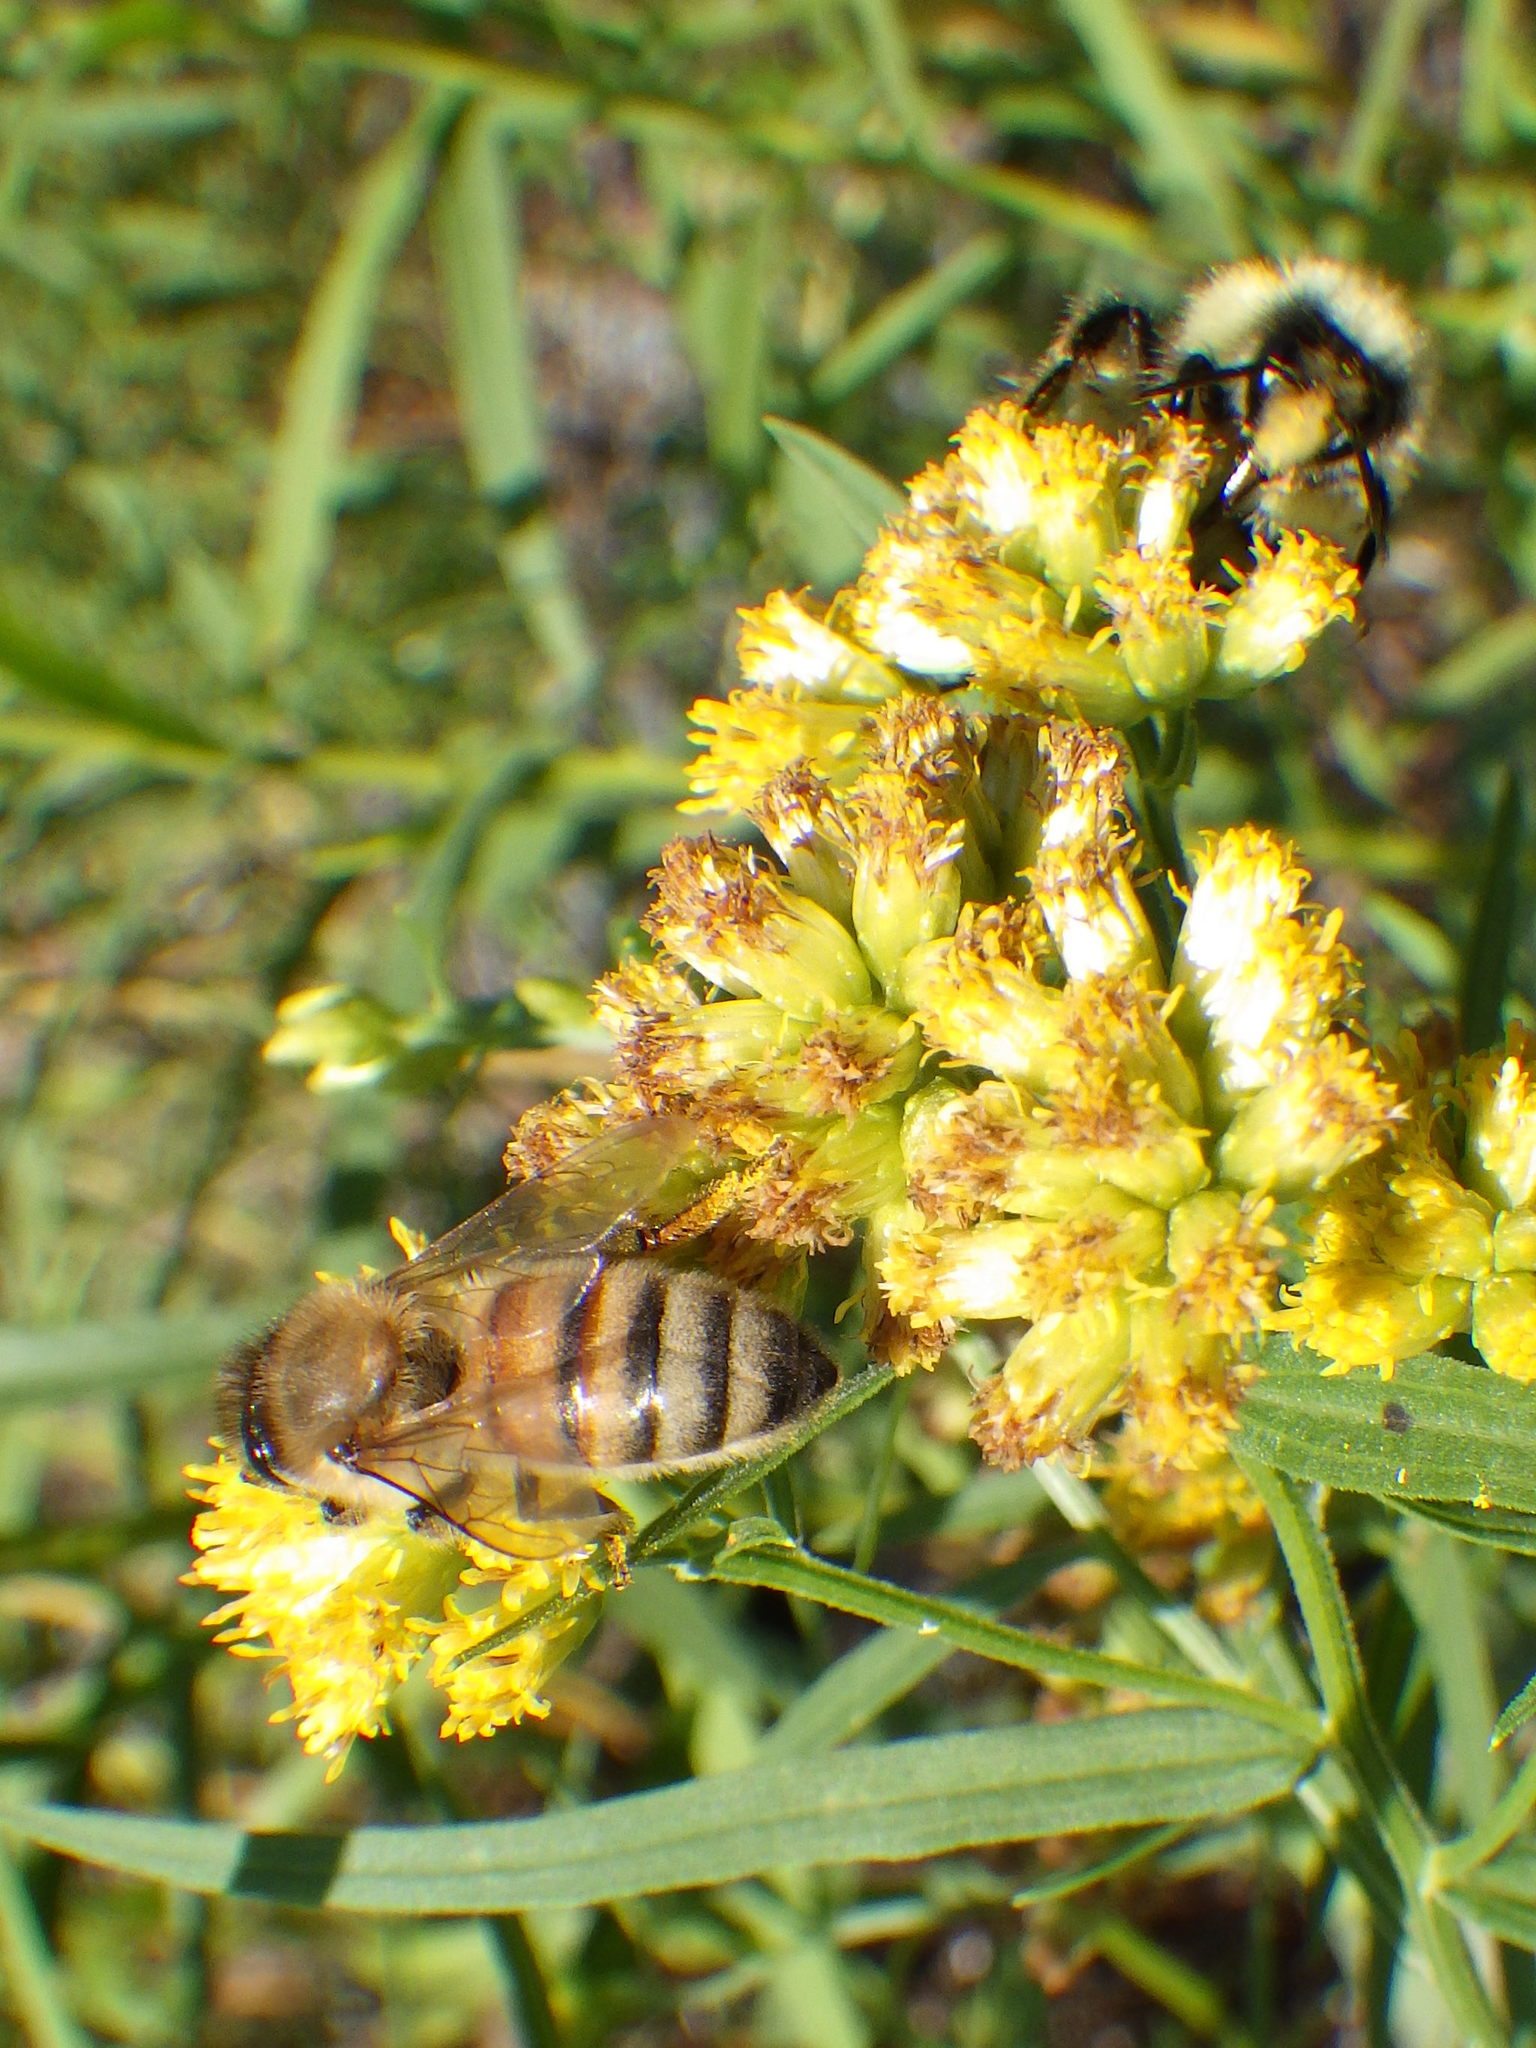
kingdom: Animalia
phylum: Arthropoda
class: Insecta
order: Hymenoptera
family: Apidae
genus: Apis
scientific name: Apis mellifera
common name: Honey bee
